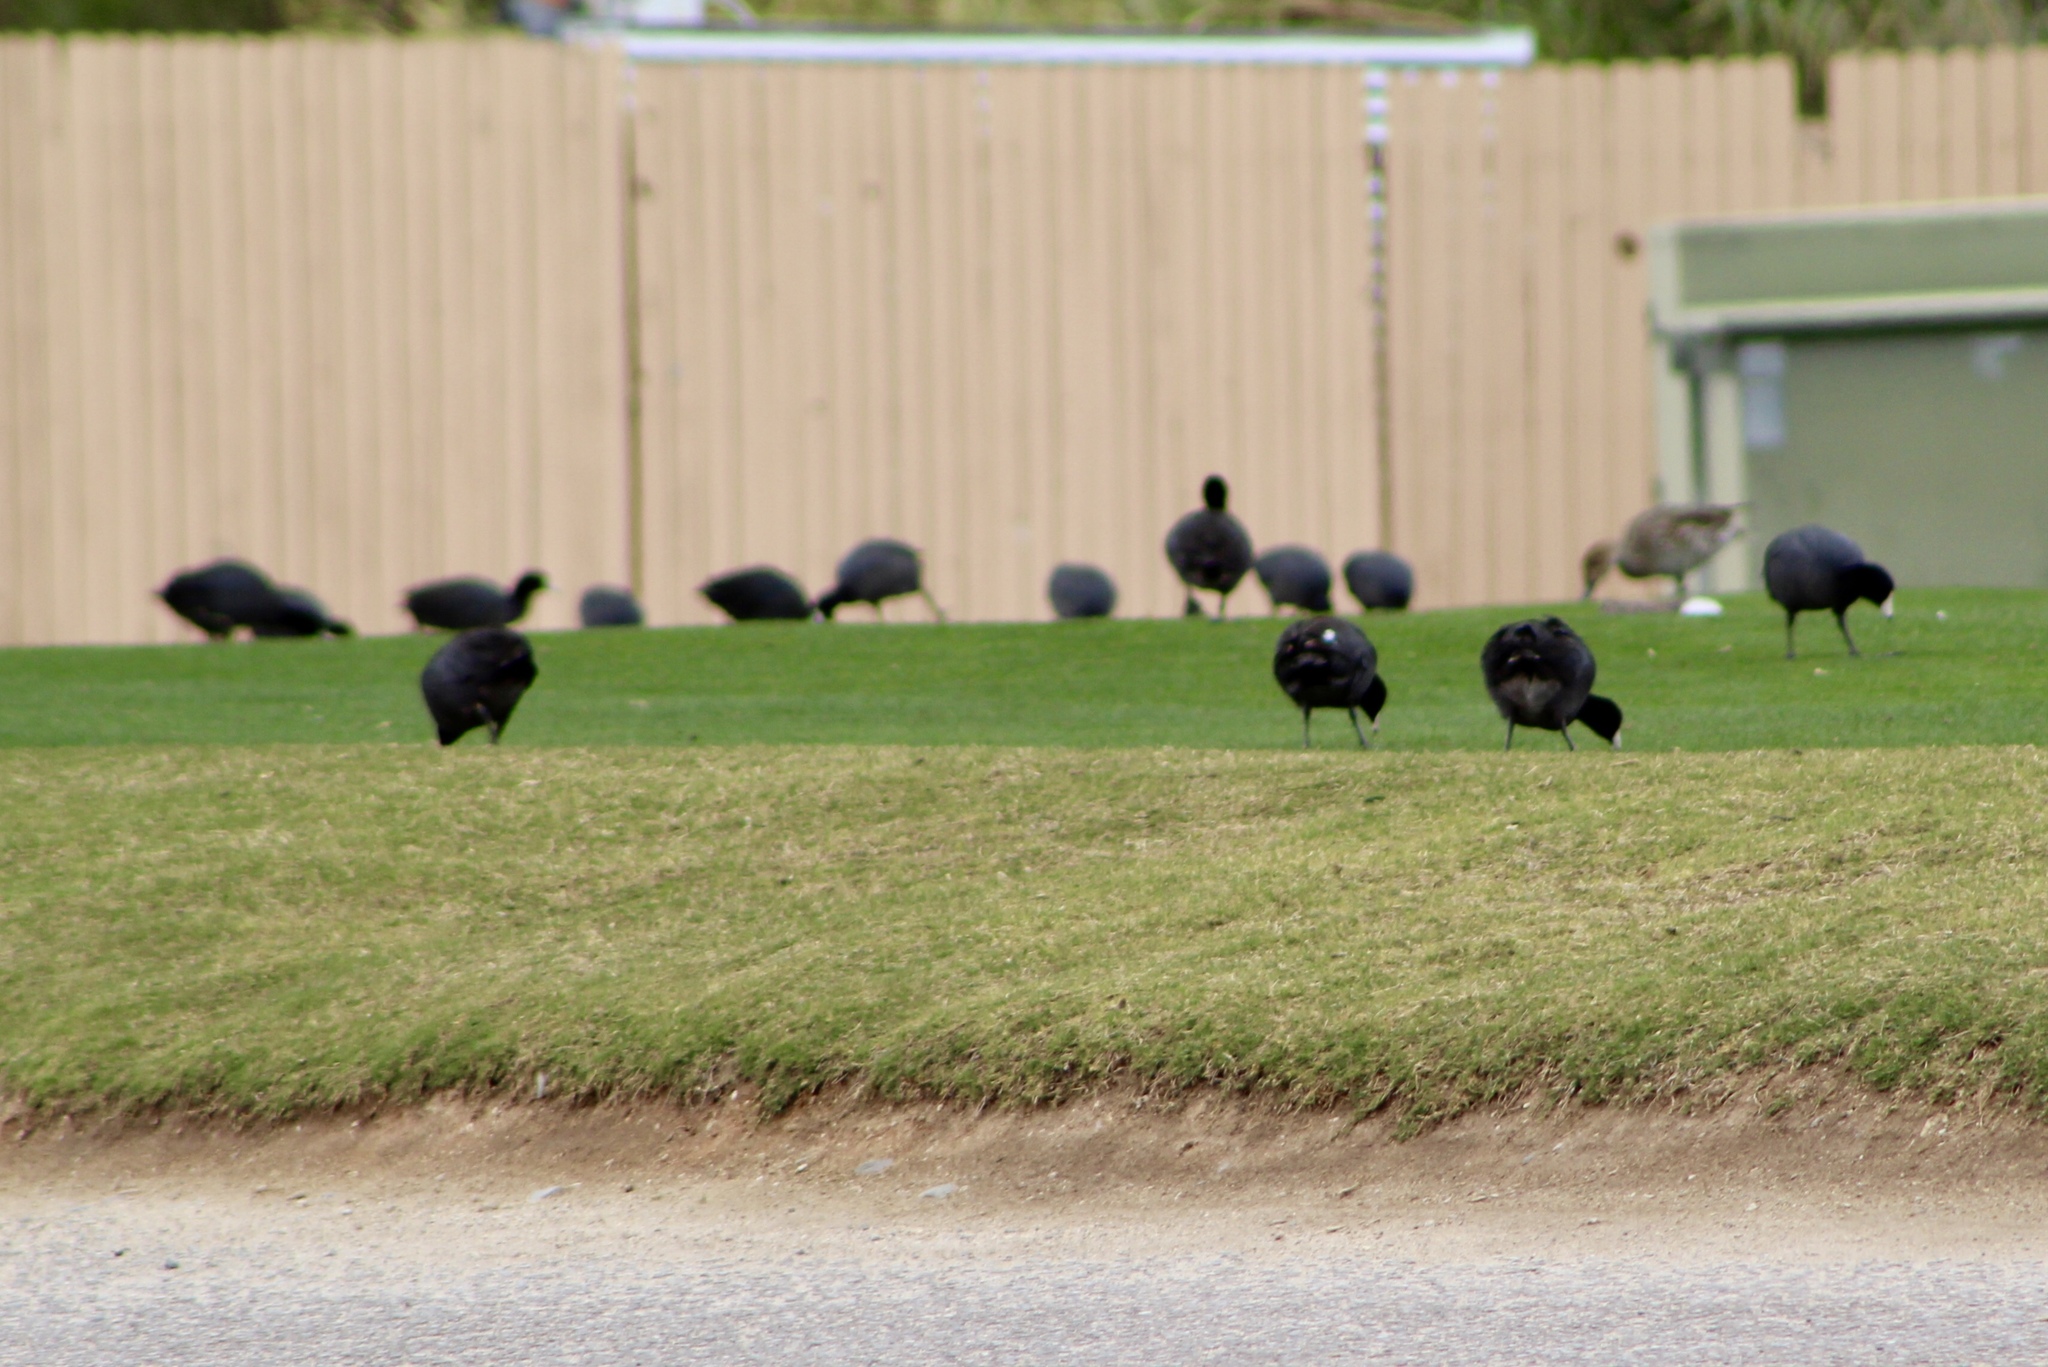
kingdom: Animalia
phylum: Chordata
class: Aves
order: Gruiformes
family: Rallidae
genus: Fulica
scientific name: Fulica americana
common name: American coot
